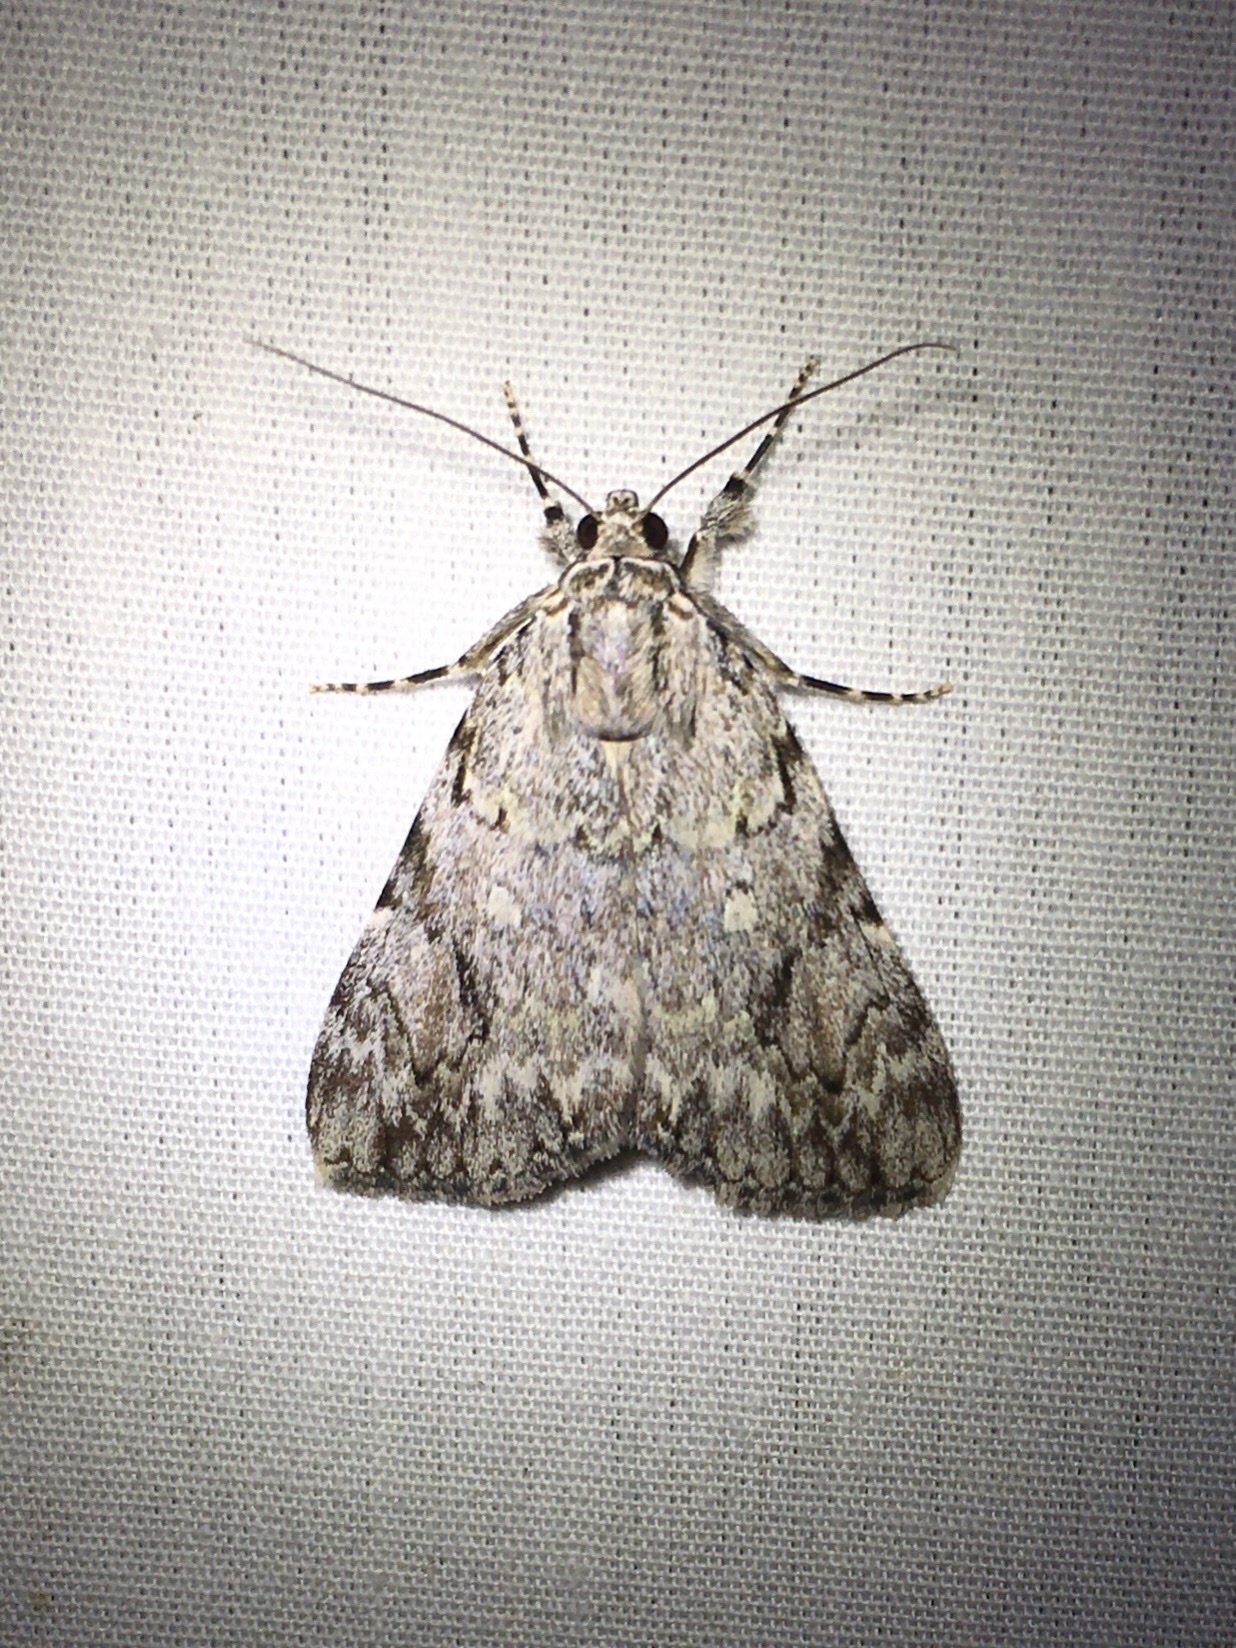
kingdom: Animalia
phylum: Arthropoda
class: Insecta
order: Lepidoptera
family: Erebidae
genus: Catocala
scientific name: Catocala amica
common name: Girlfriend underwing
